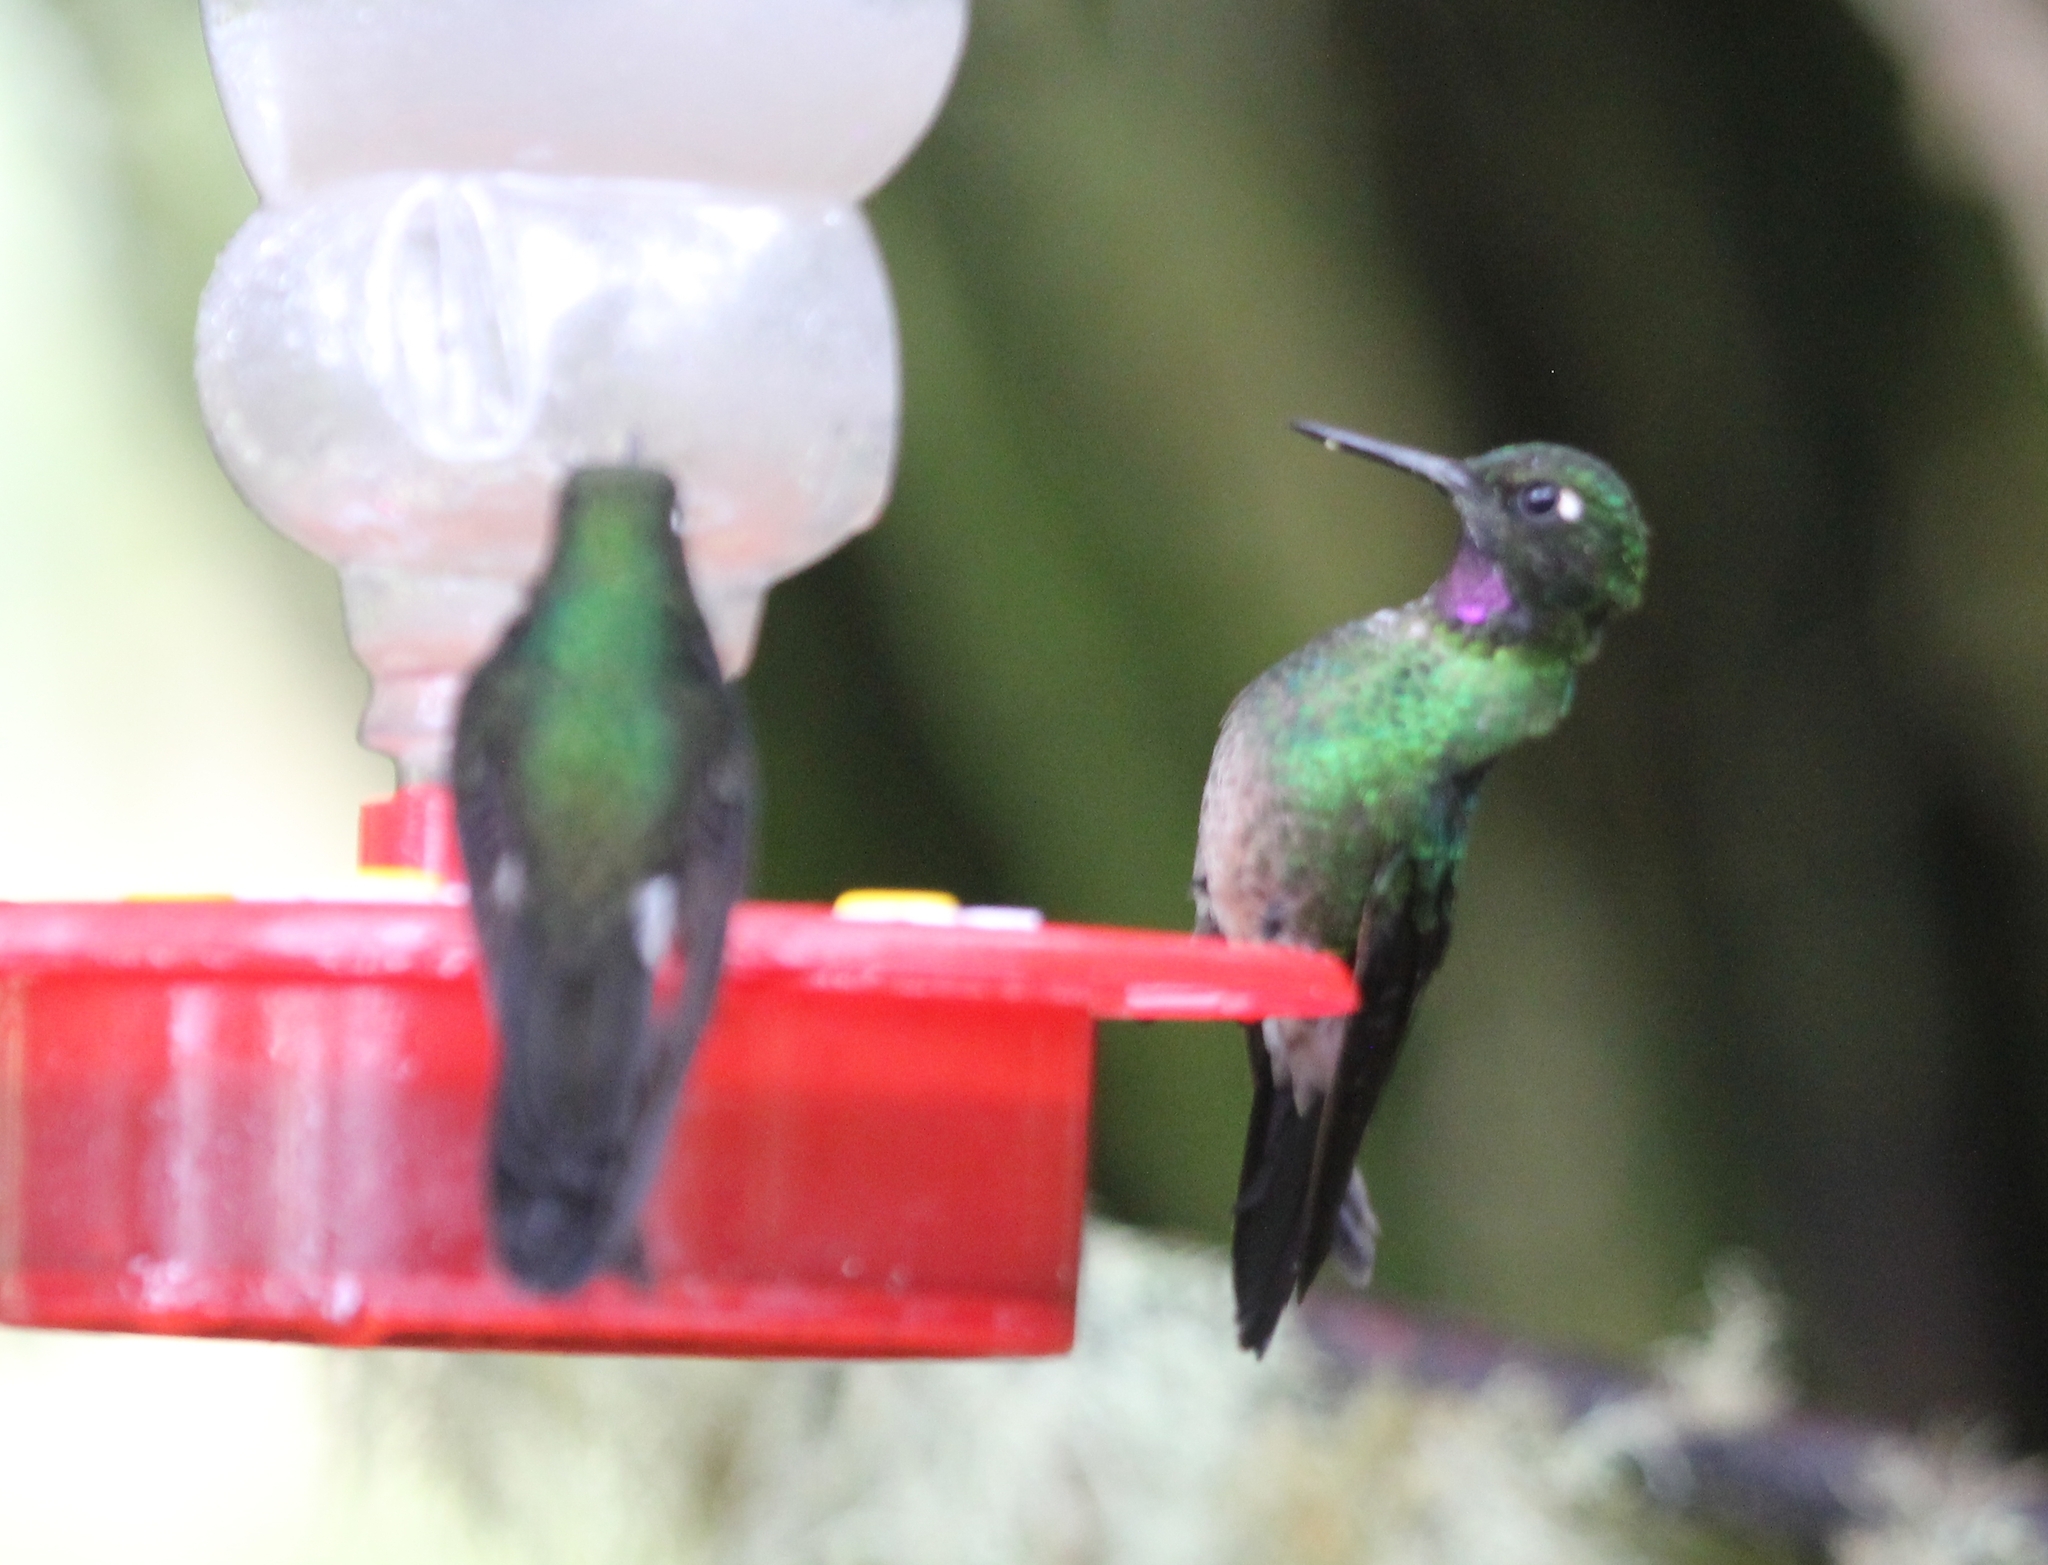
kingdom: Animalia
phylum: Chordata
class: Aves
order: Apodiformes
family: Trochilidae
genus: Heliangelus
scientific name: Heliangelus exortis
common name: Tourmaline sunangel
